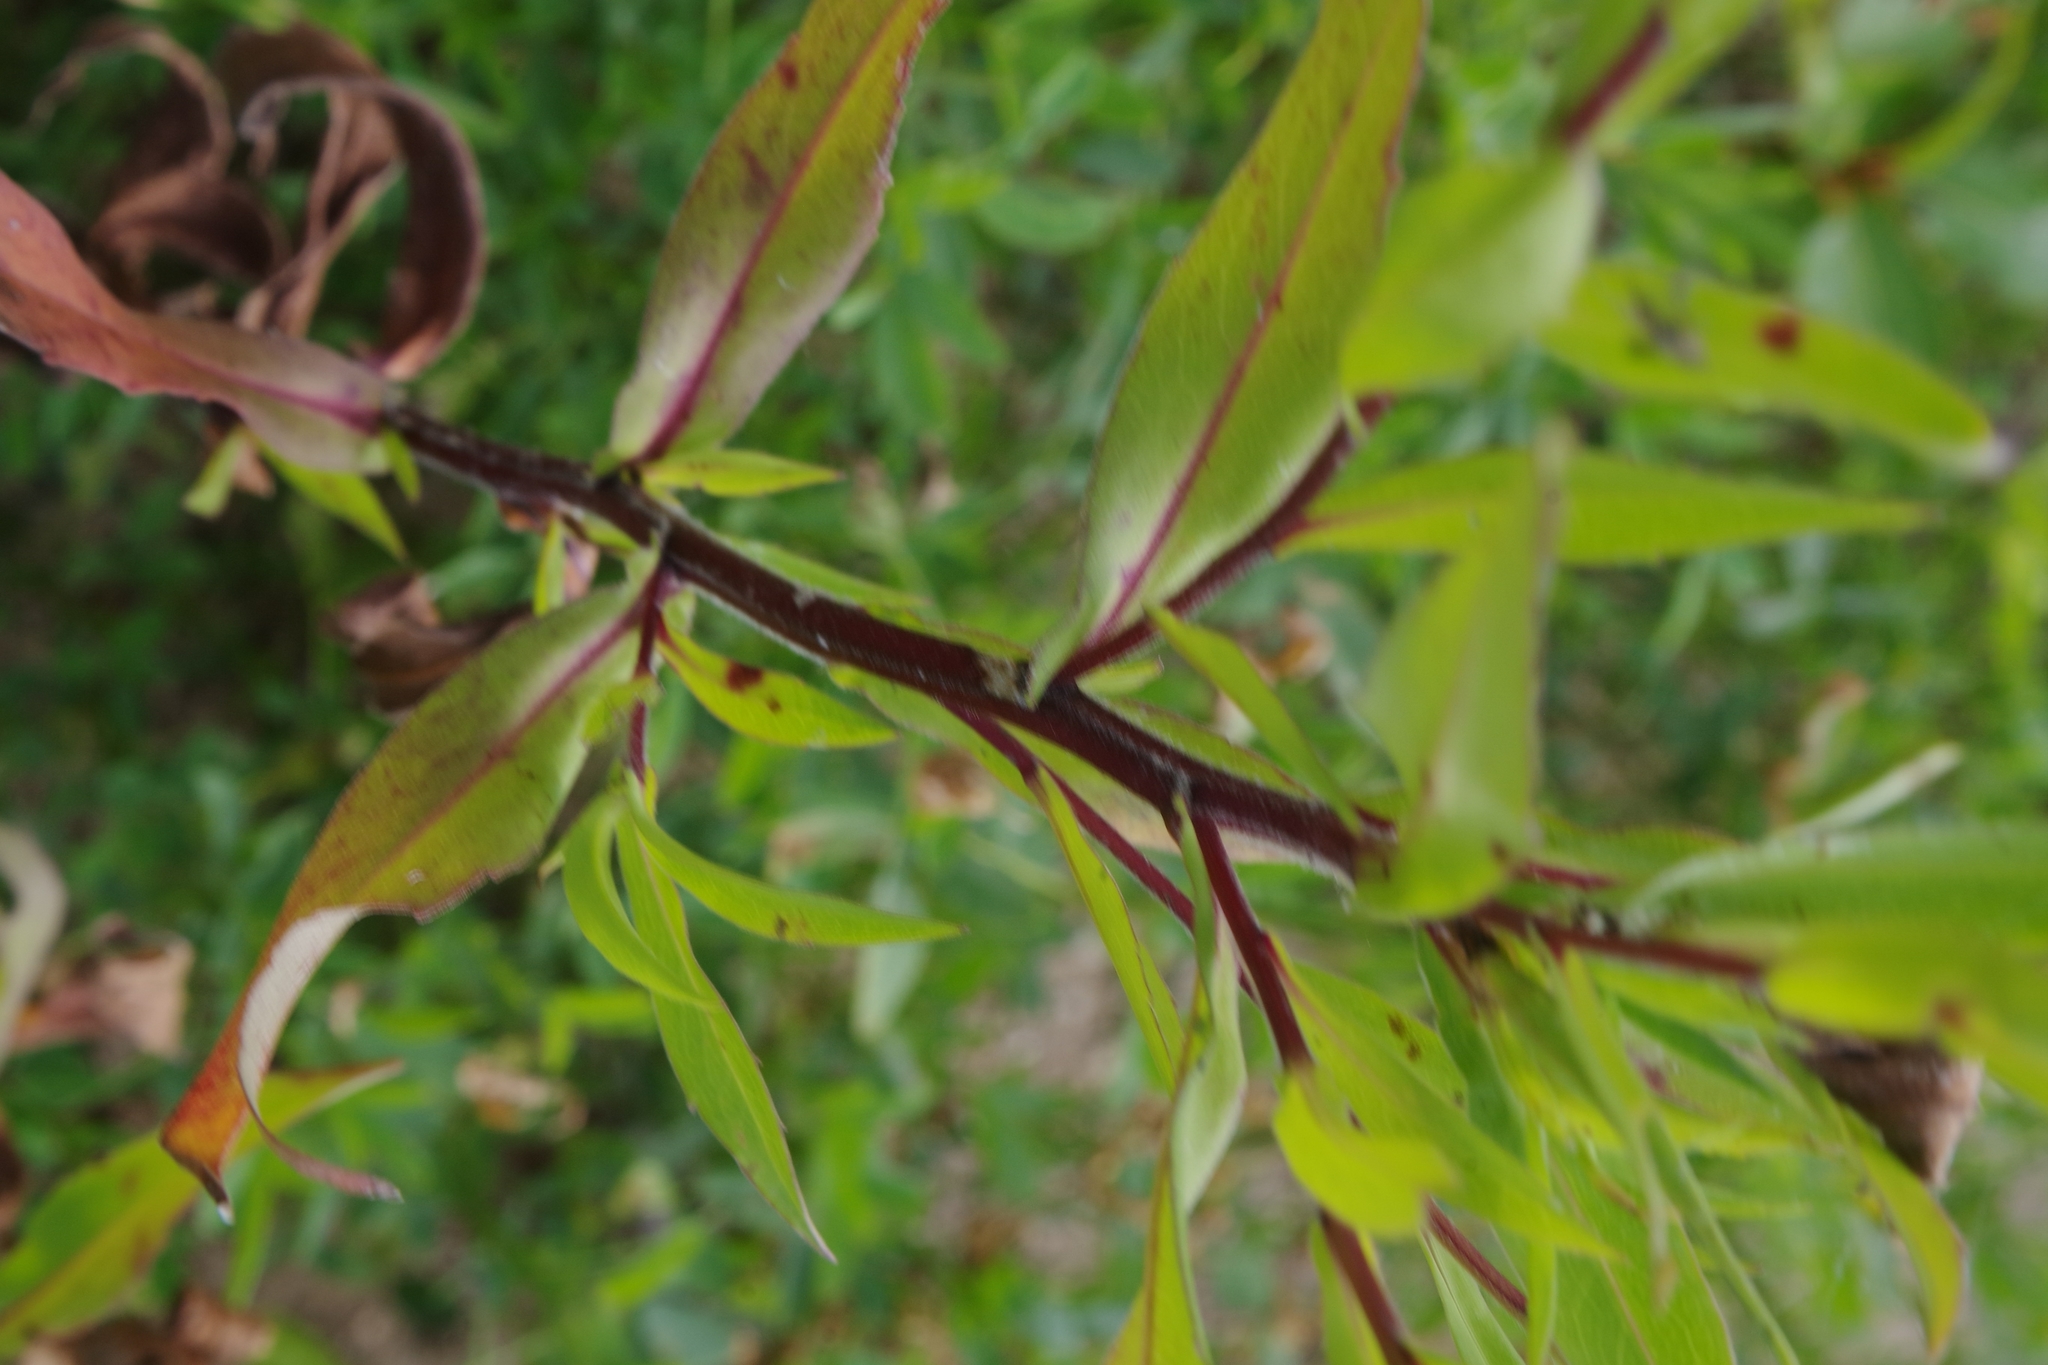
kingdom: Plantae
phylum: Tracheophyta
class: Magnoliopsida
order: Asterales
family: Asteraceae
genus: Symphyotrichum
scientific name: Symphyotrichum lanceolatum
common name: Panicled aster
